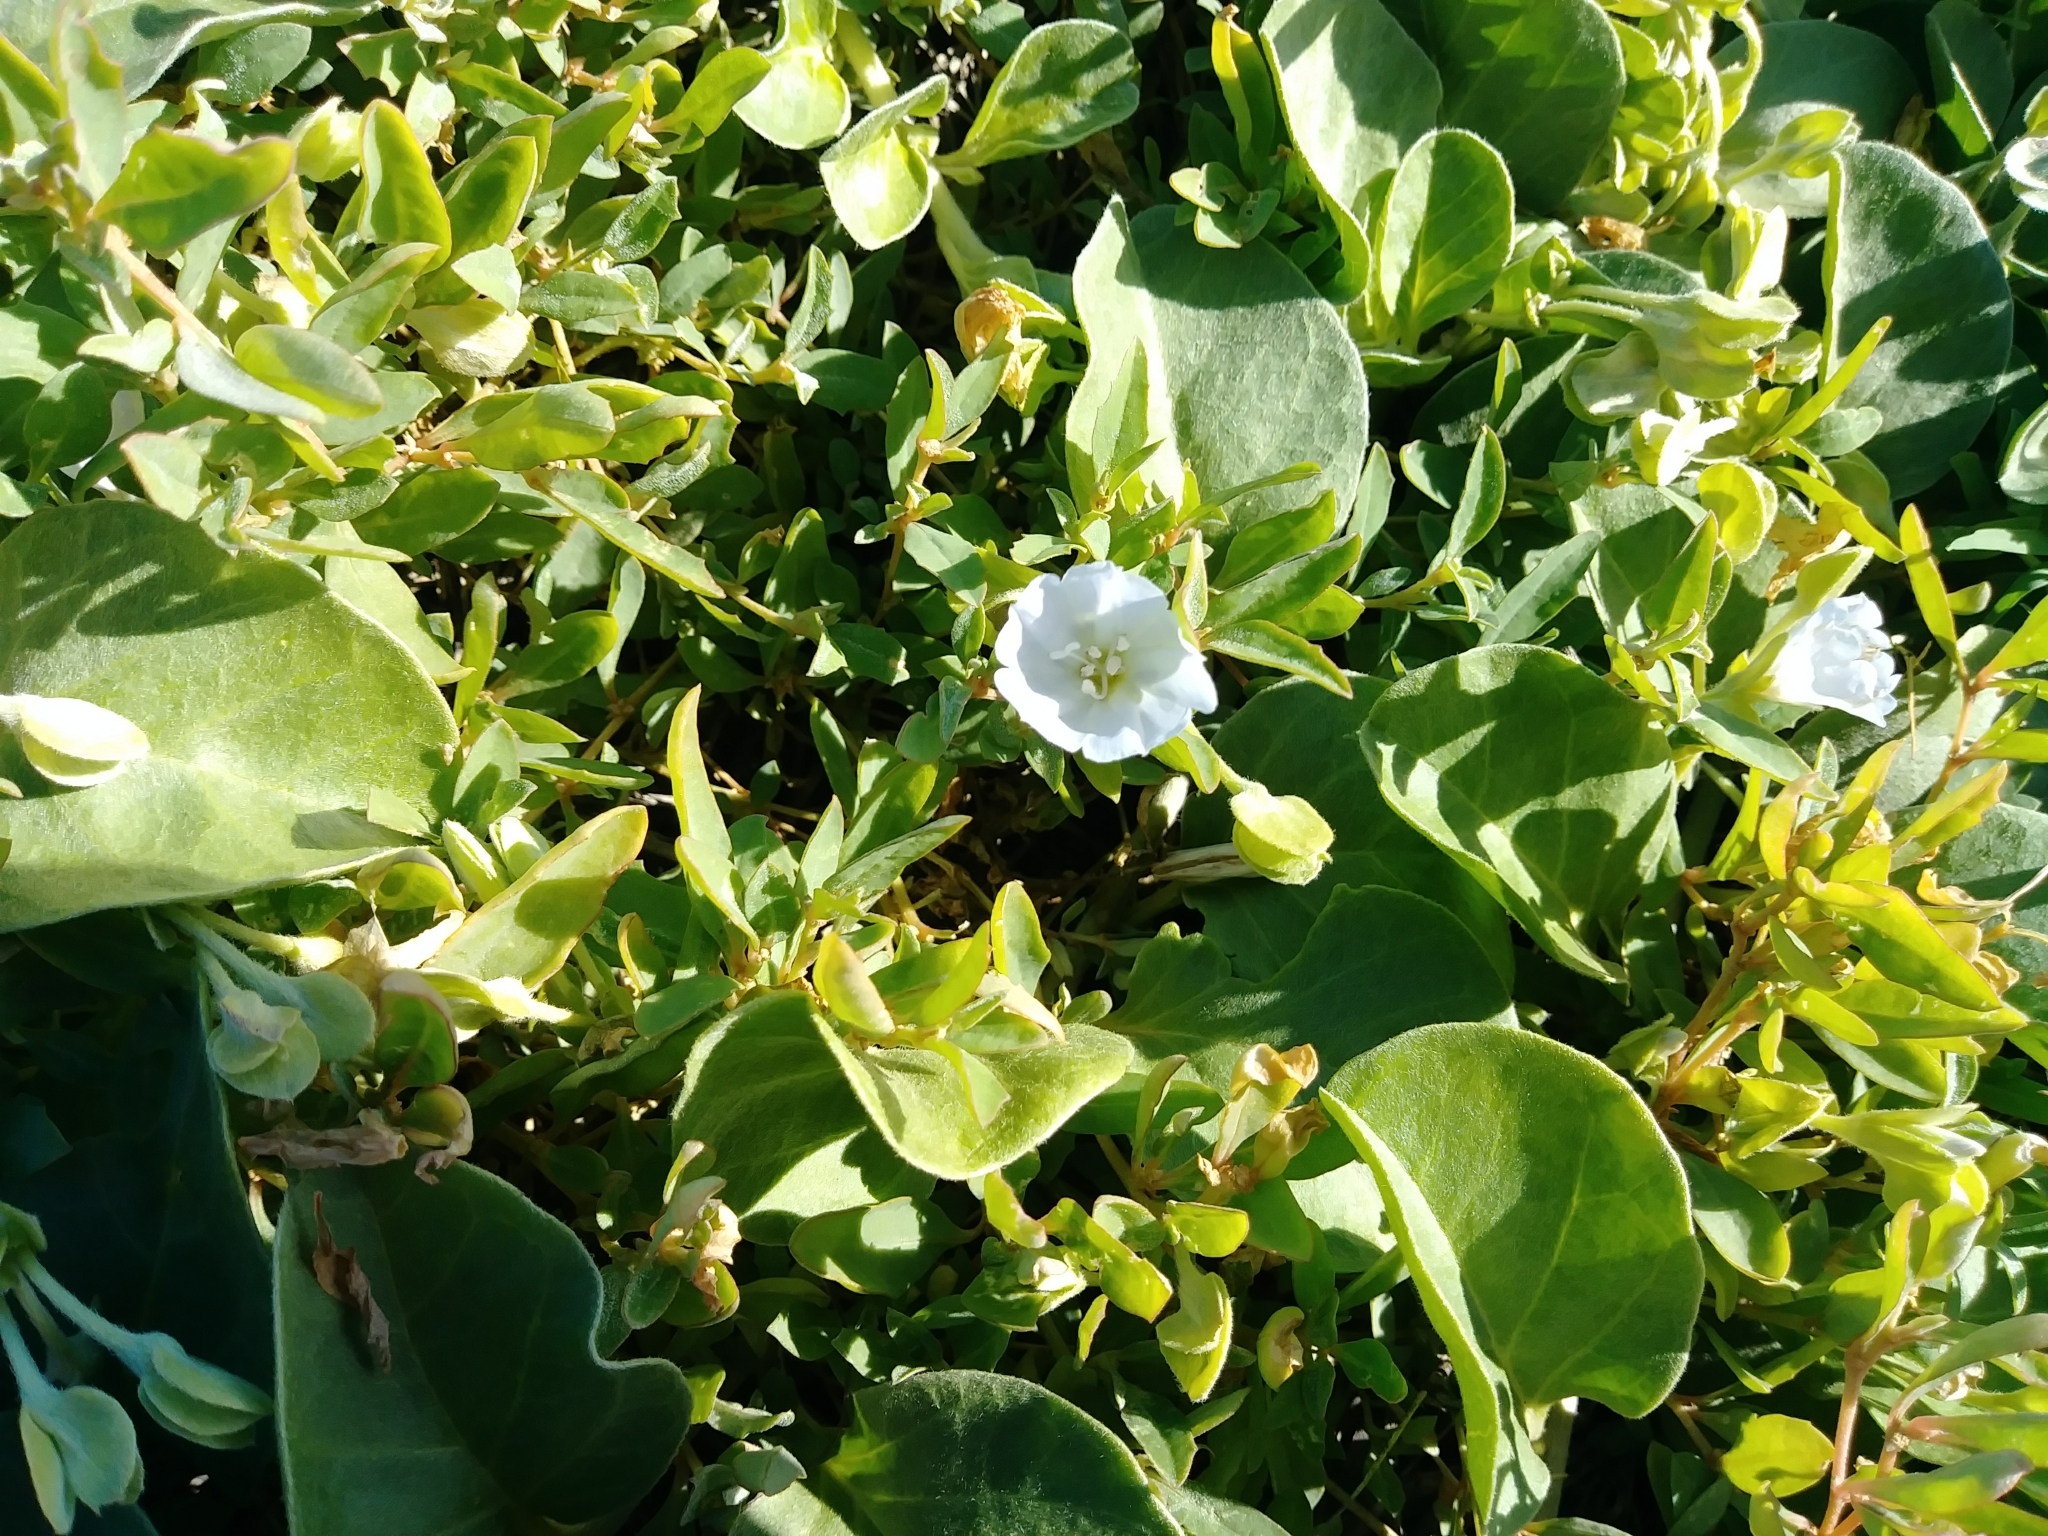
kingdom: Plantae
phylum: Tracheophyta
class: Magnoliopsida
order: Solanales
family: Convolvulaceae
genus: Jacquemontia
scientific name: Jacquemontia sandwicensis
